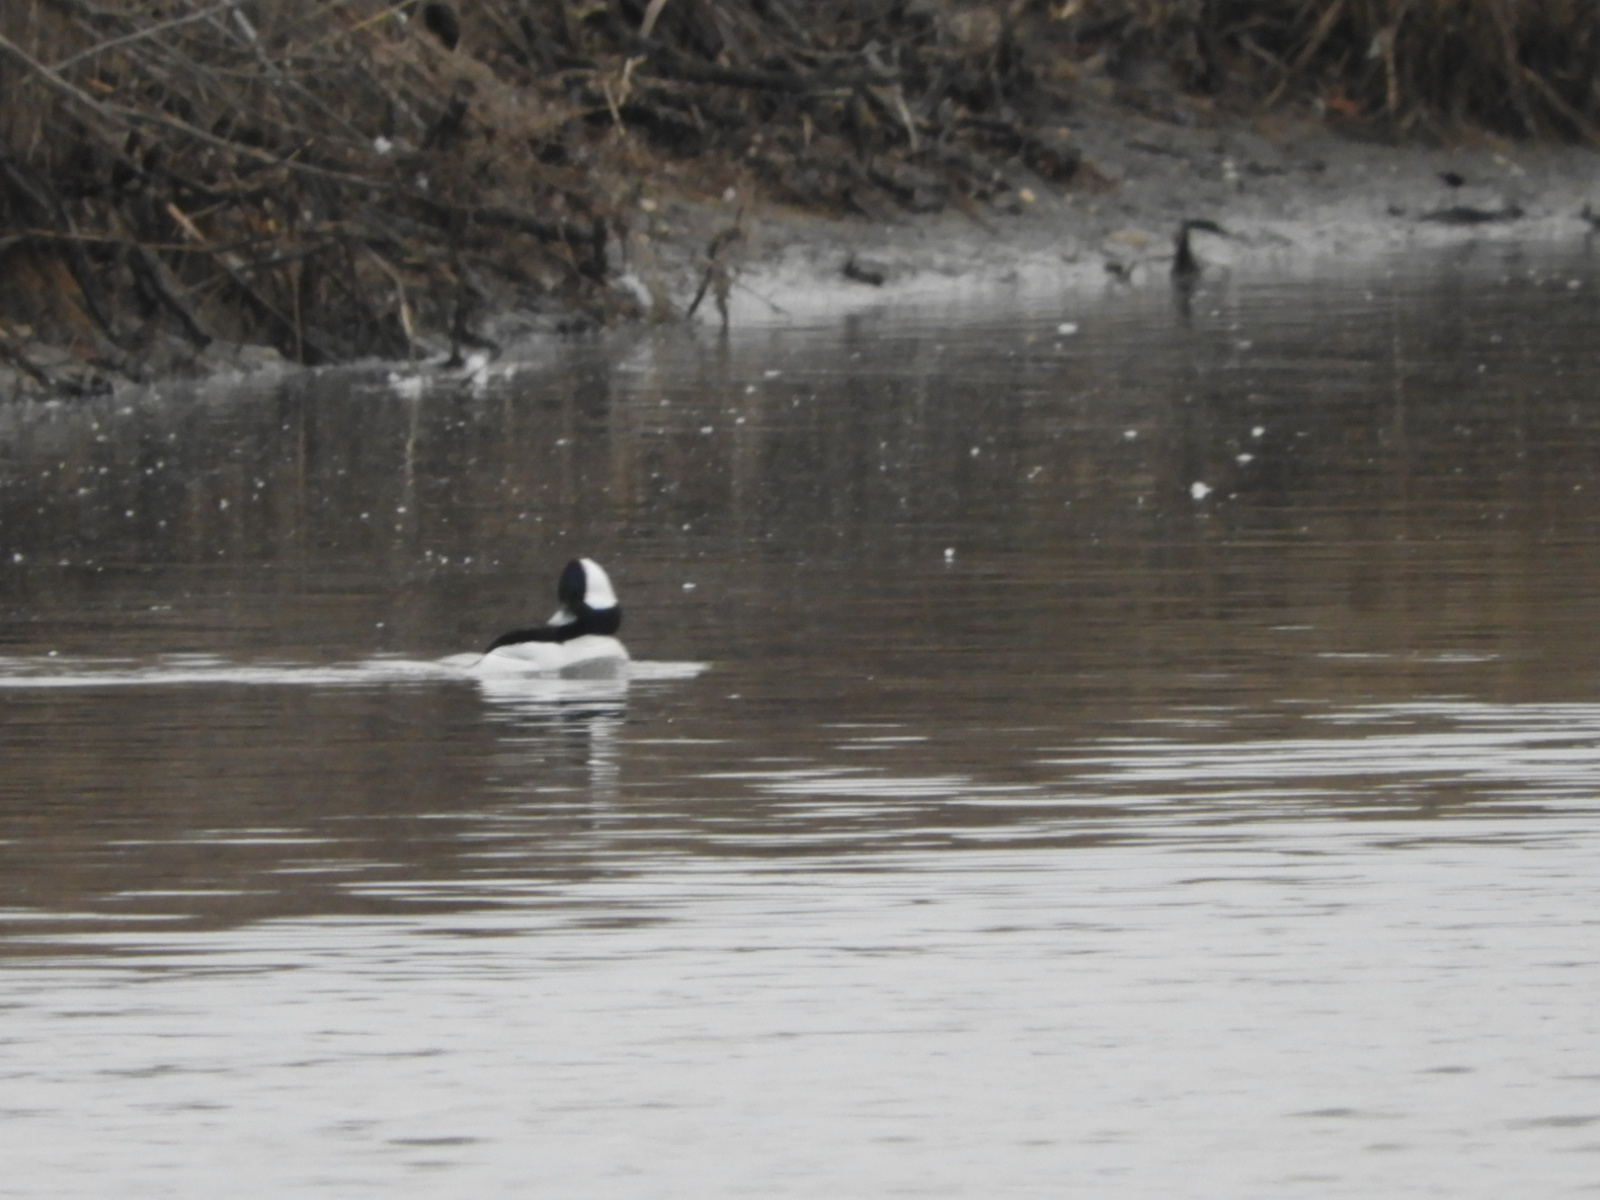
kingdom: Animalia
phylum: Chordata
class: Aves
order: Anseriformes
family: Anatidae
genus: Bucephala
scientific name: Bucephala albeola
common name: Bufflehead
